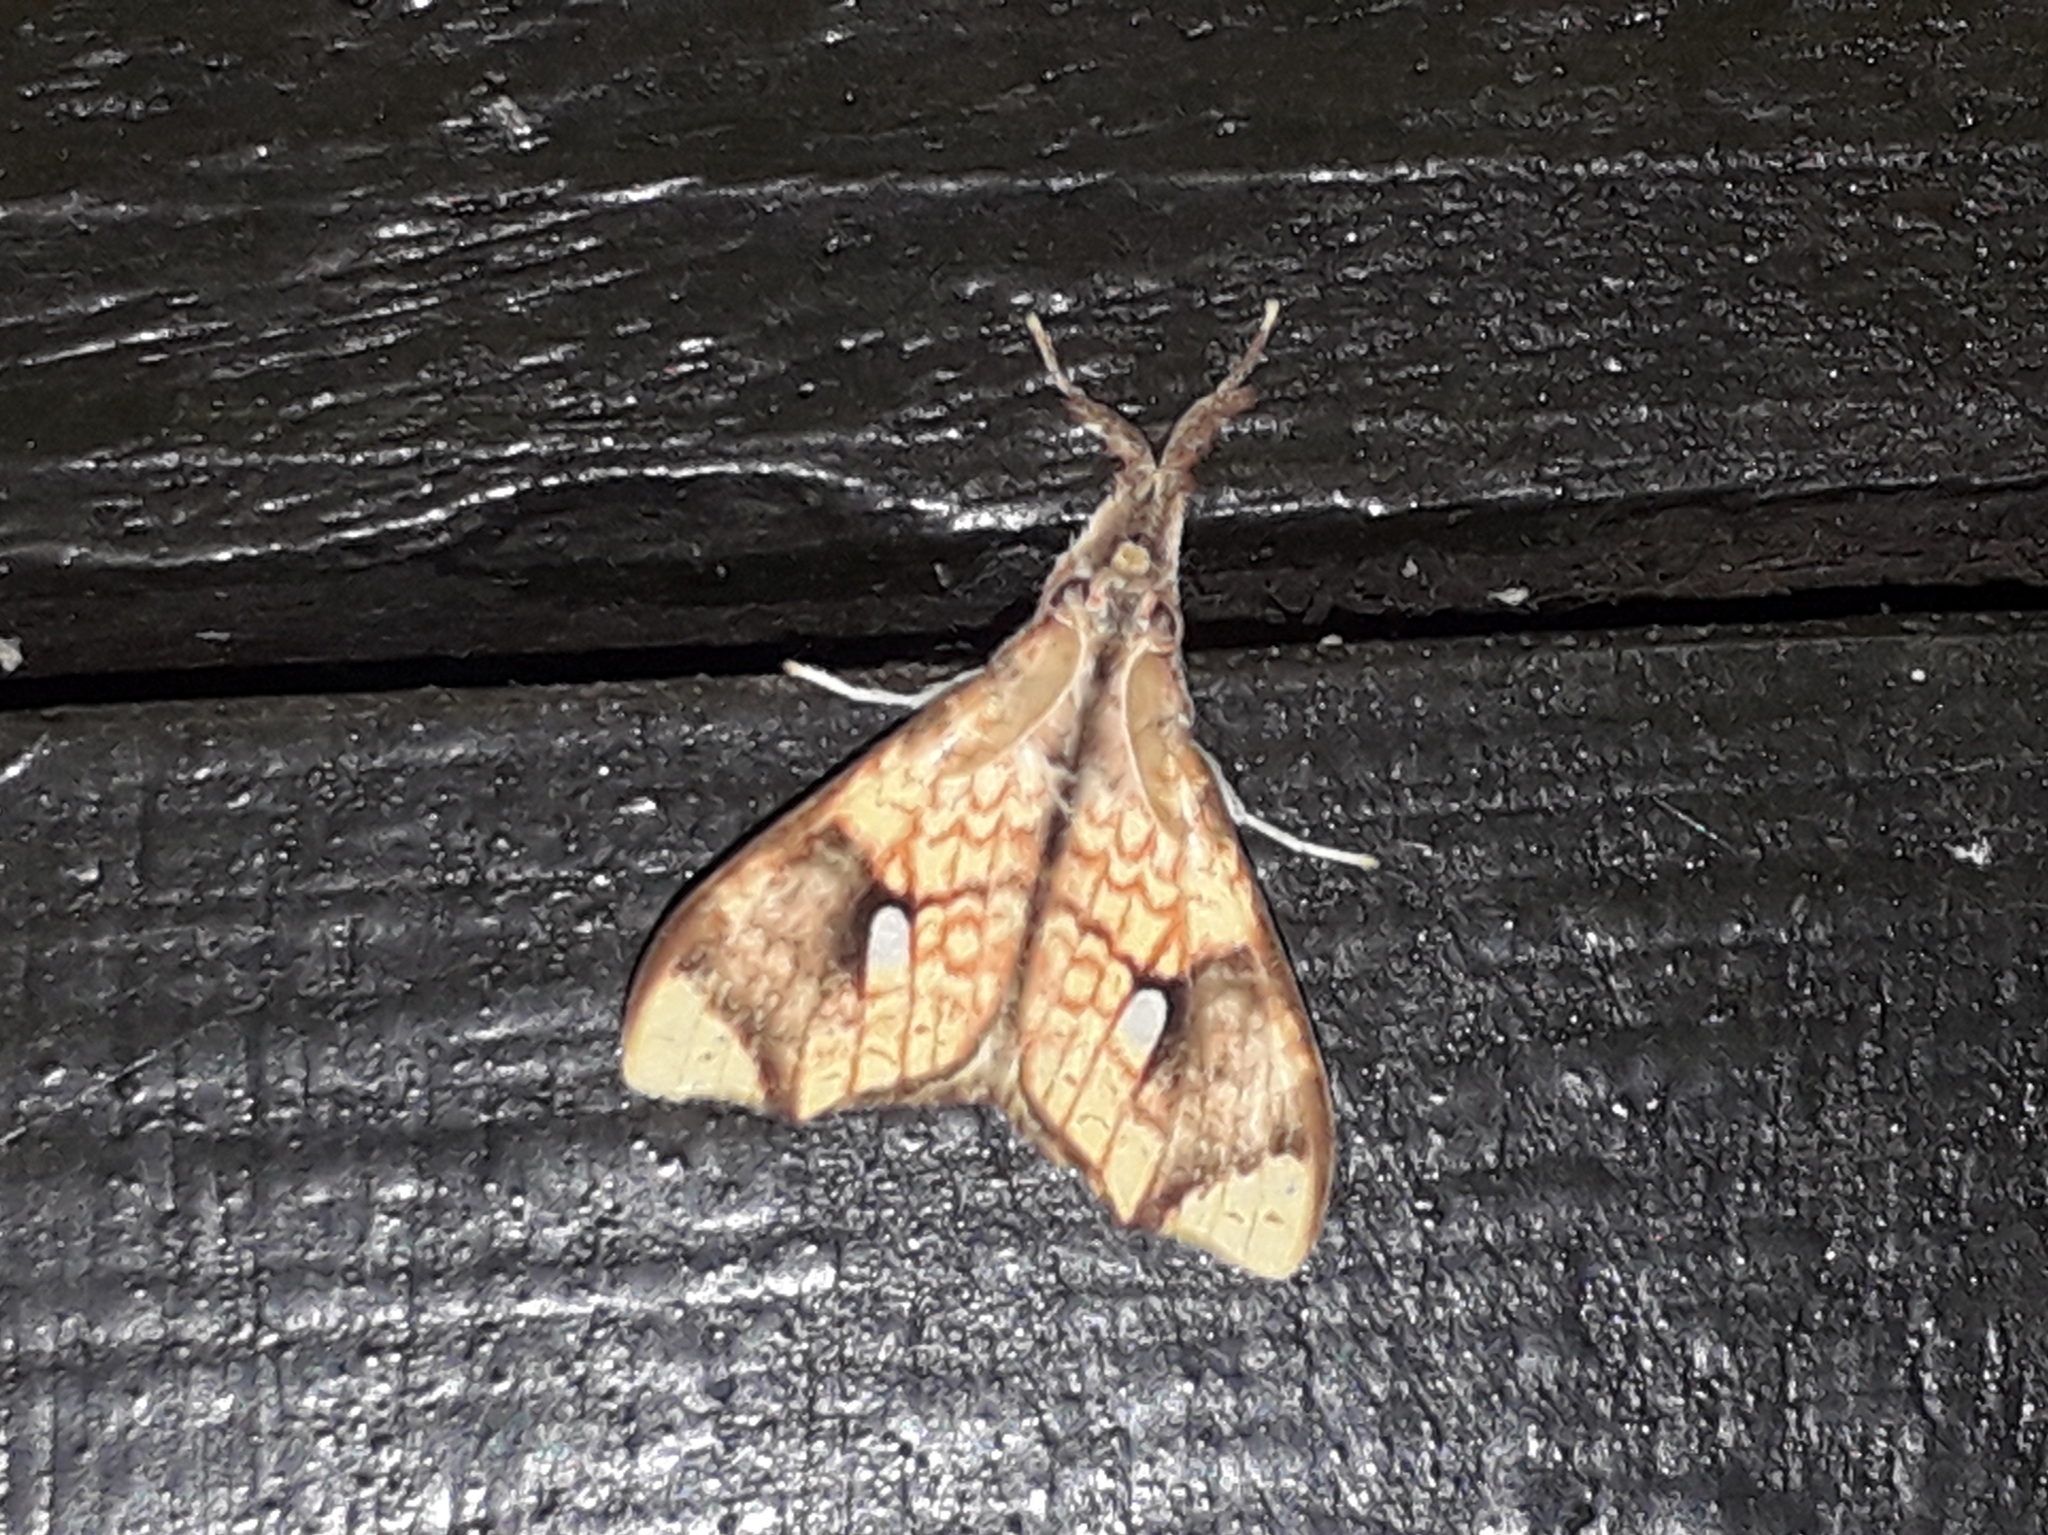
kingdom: Animalia
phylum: Arthropoda
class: Insecta
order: Lepidoptera
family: Erebidae
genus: Lomadonta
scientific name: Lomadonta erythrina
